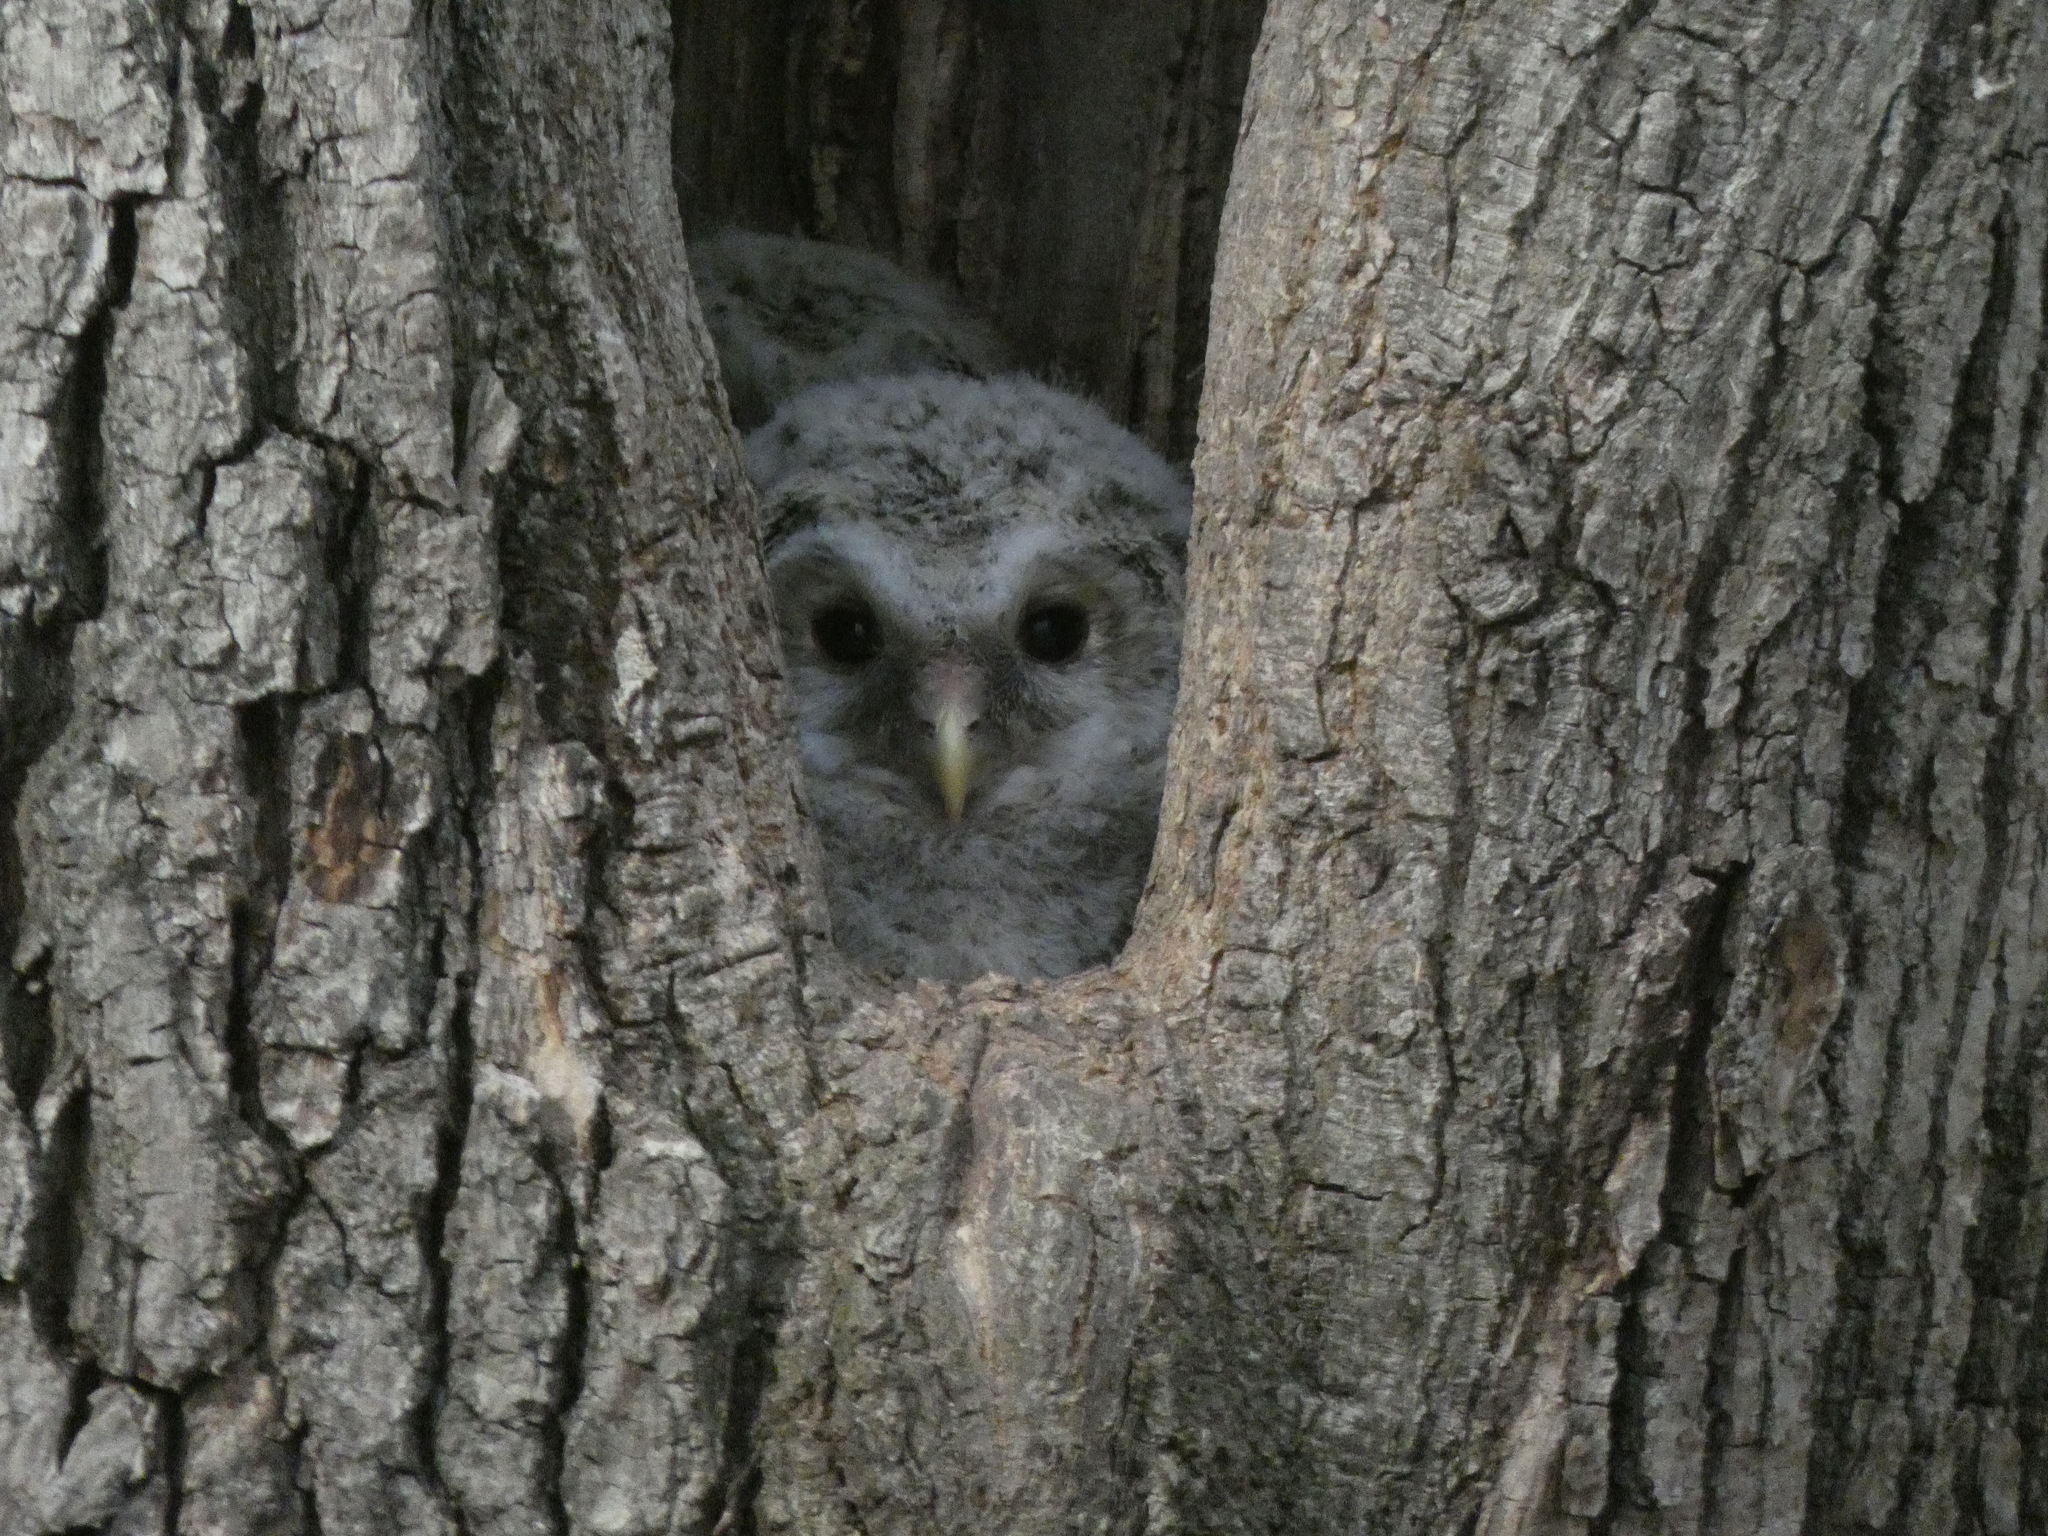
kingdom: Animalia
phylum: Chordata
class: Aves
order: Strigiformes
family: Strigidae
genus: Strix
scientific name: Strix uralensis
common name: Ural owl
